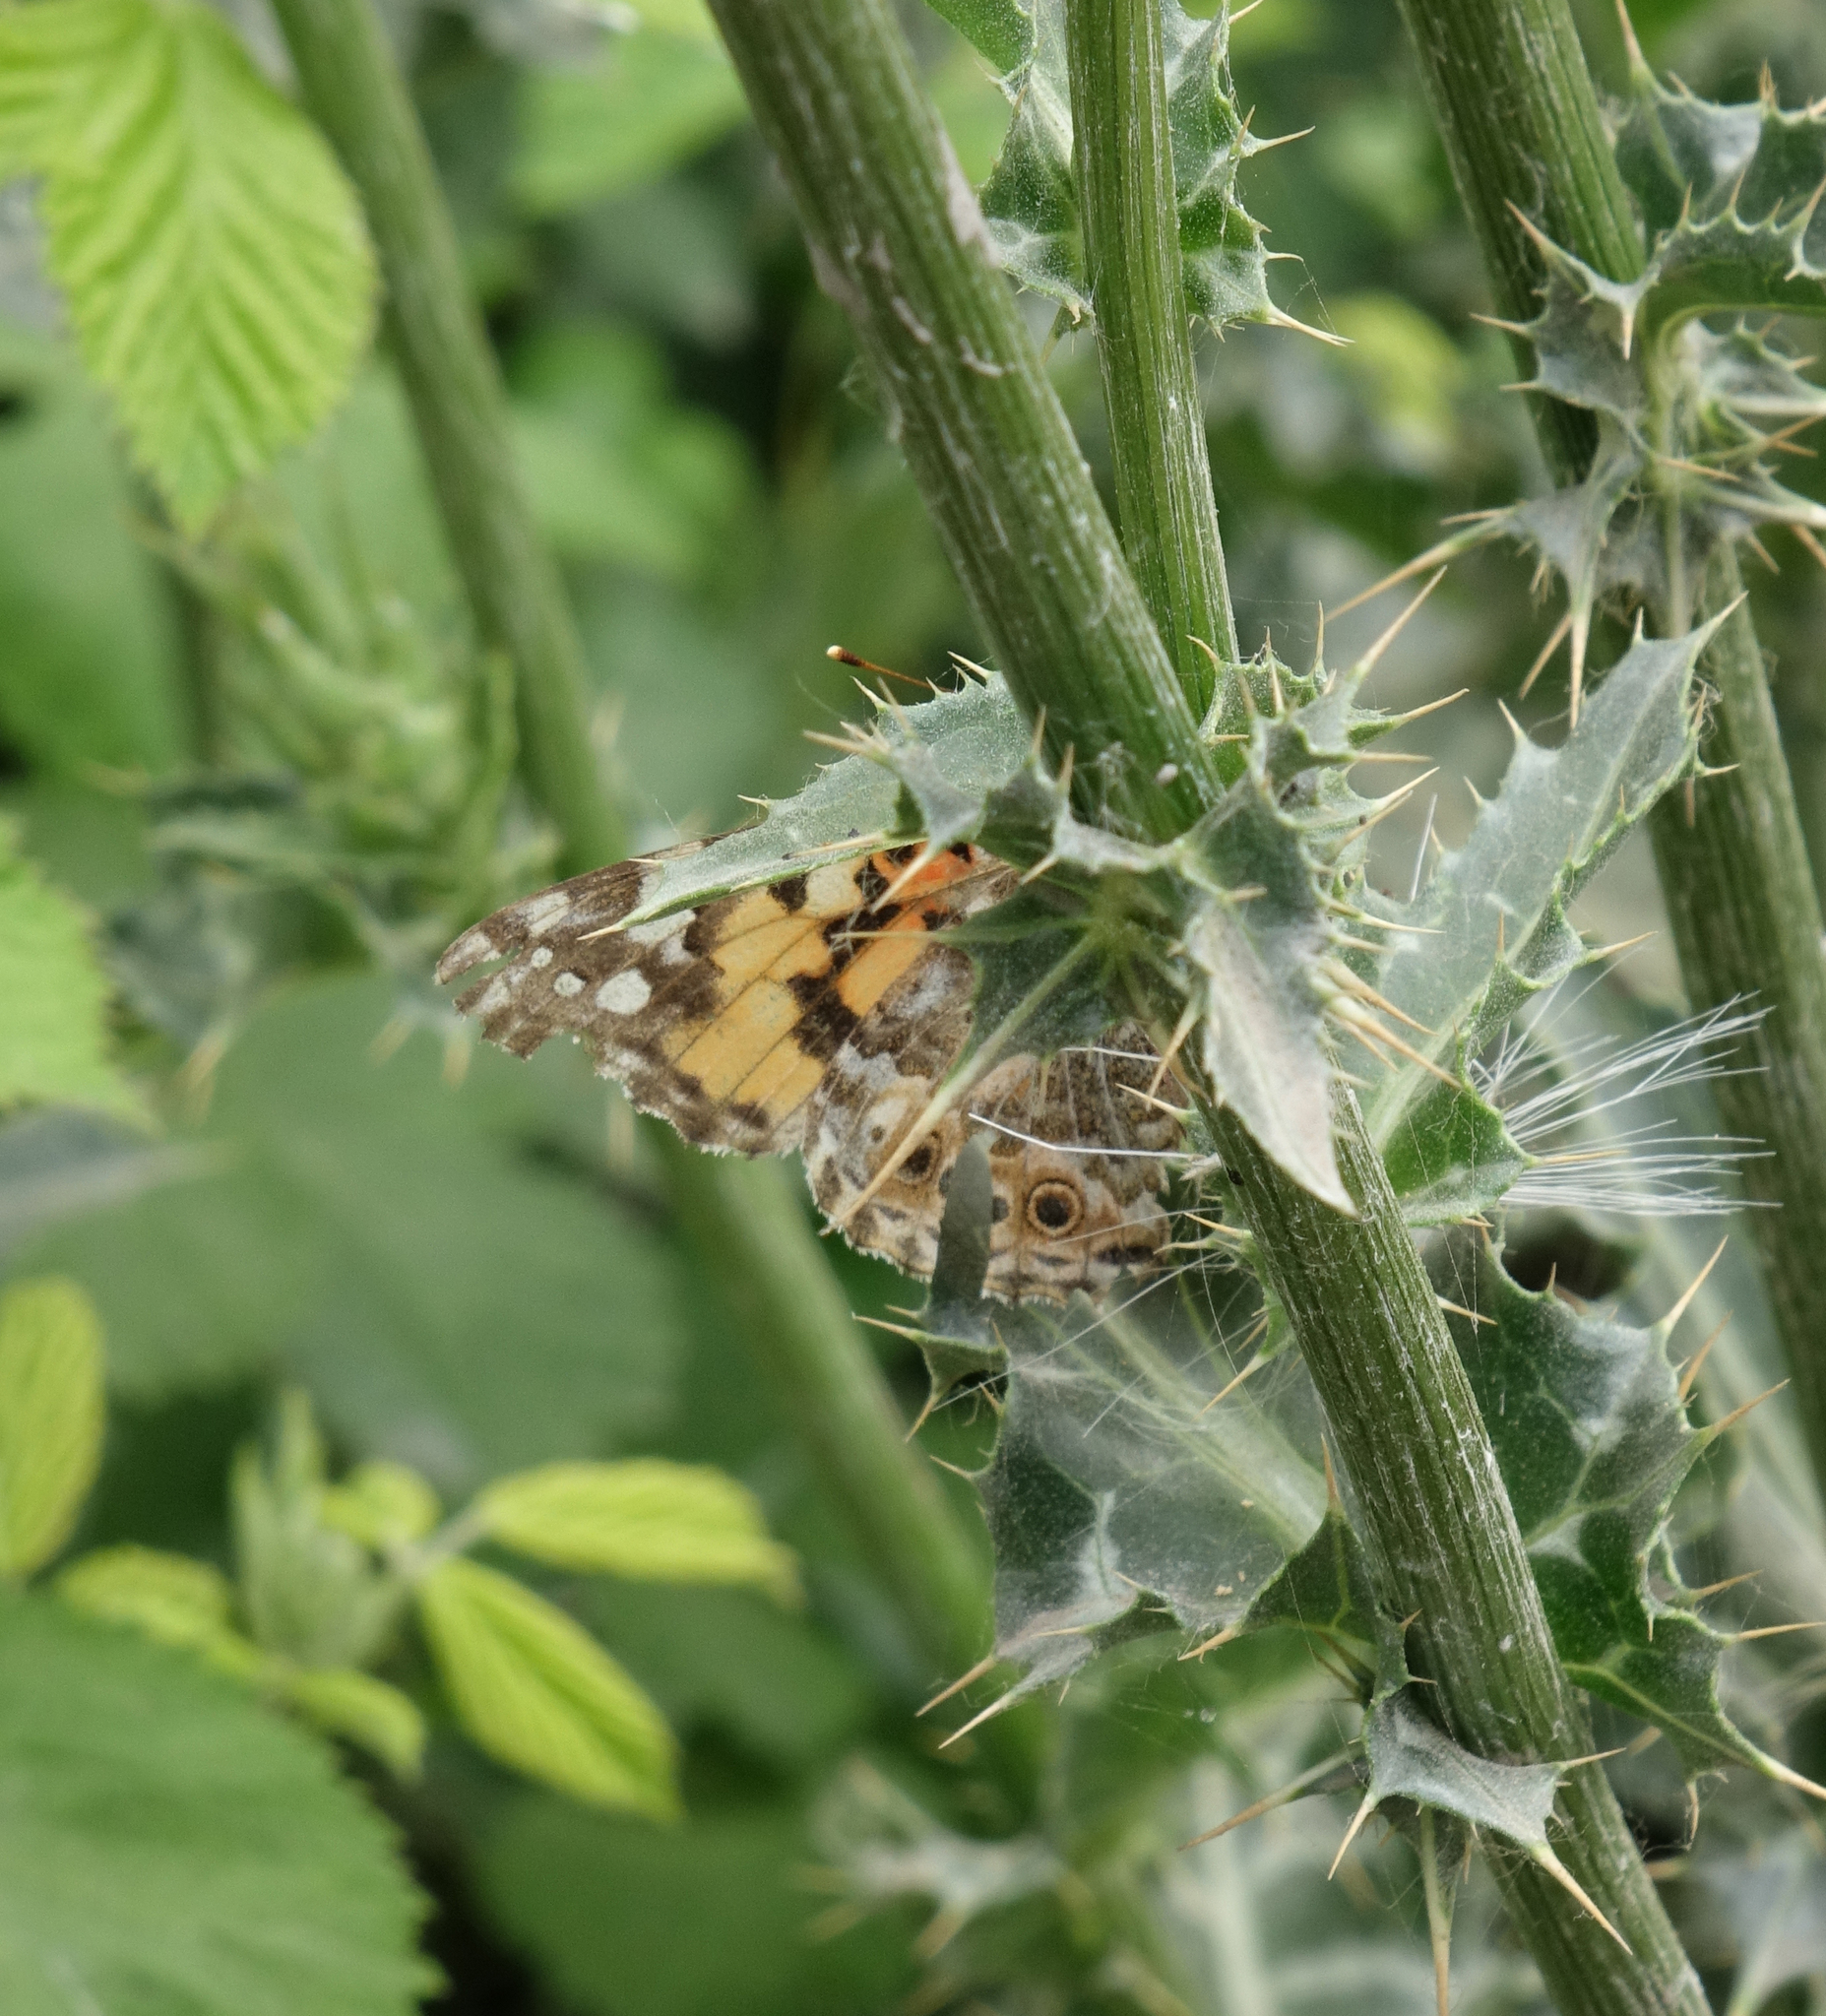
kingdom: Animalia
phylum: Arthropoda
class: Insecta
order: Lepidoptera
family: Nymphalidae
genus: Vanessa
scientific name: Vanessa cardui
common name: Painted lady
